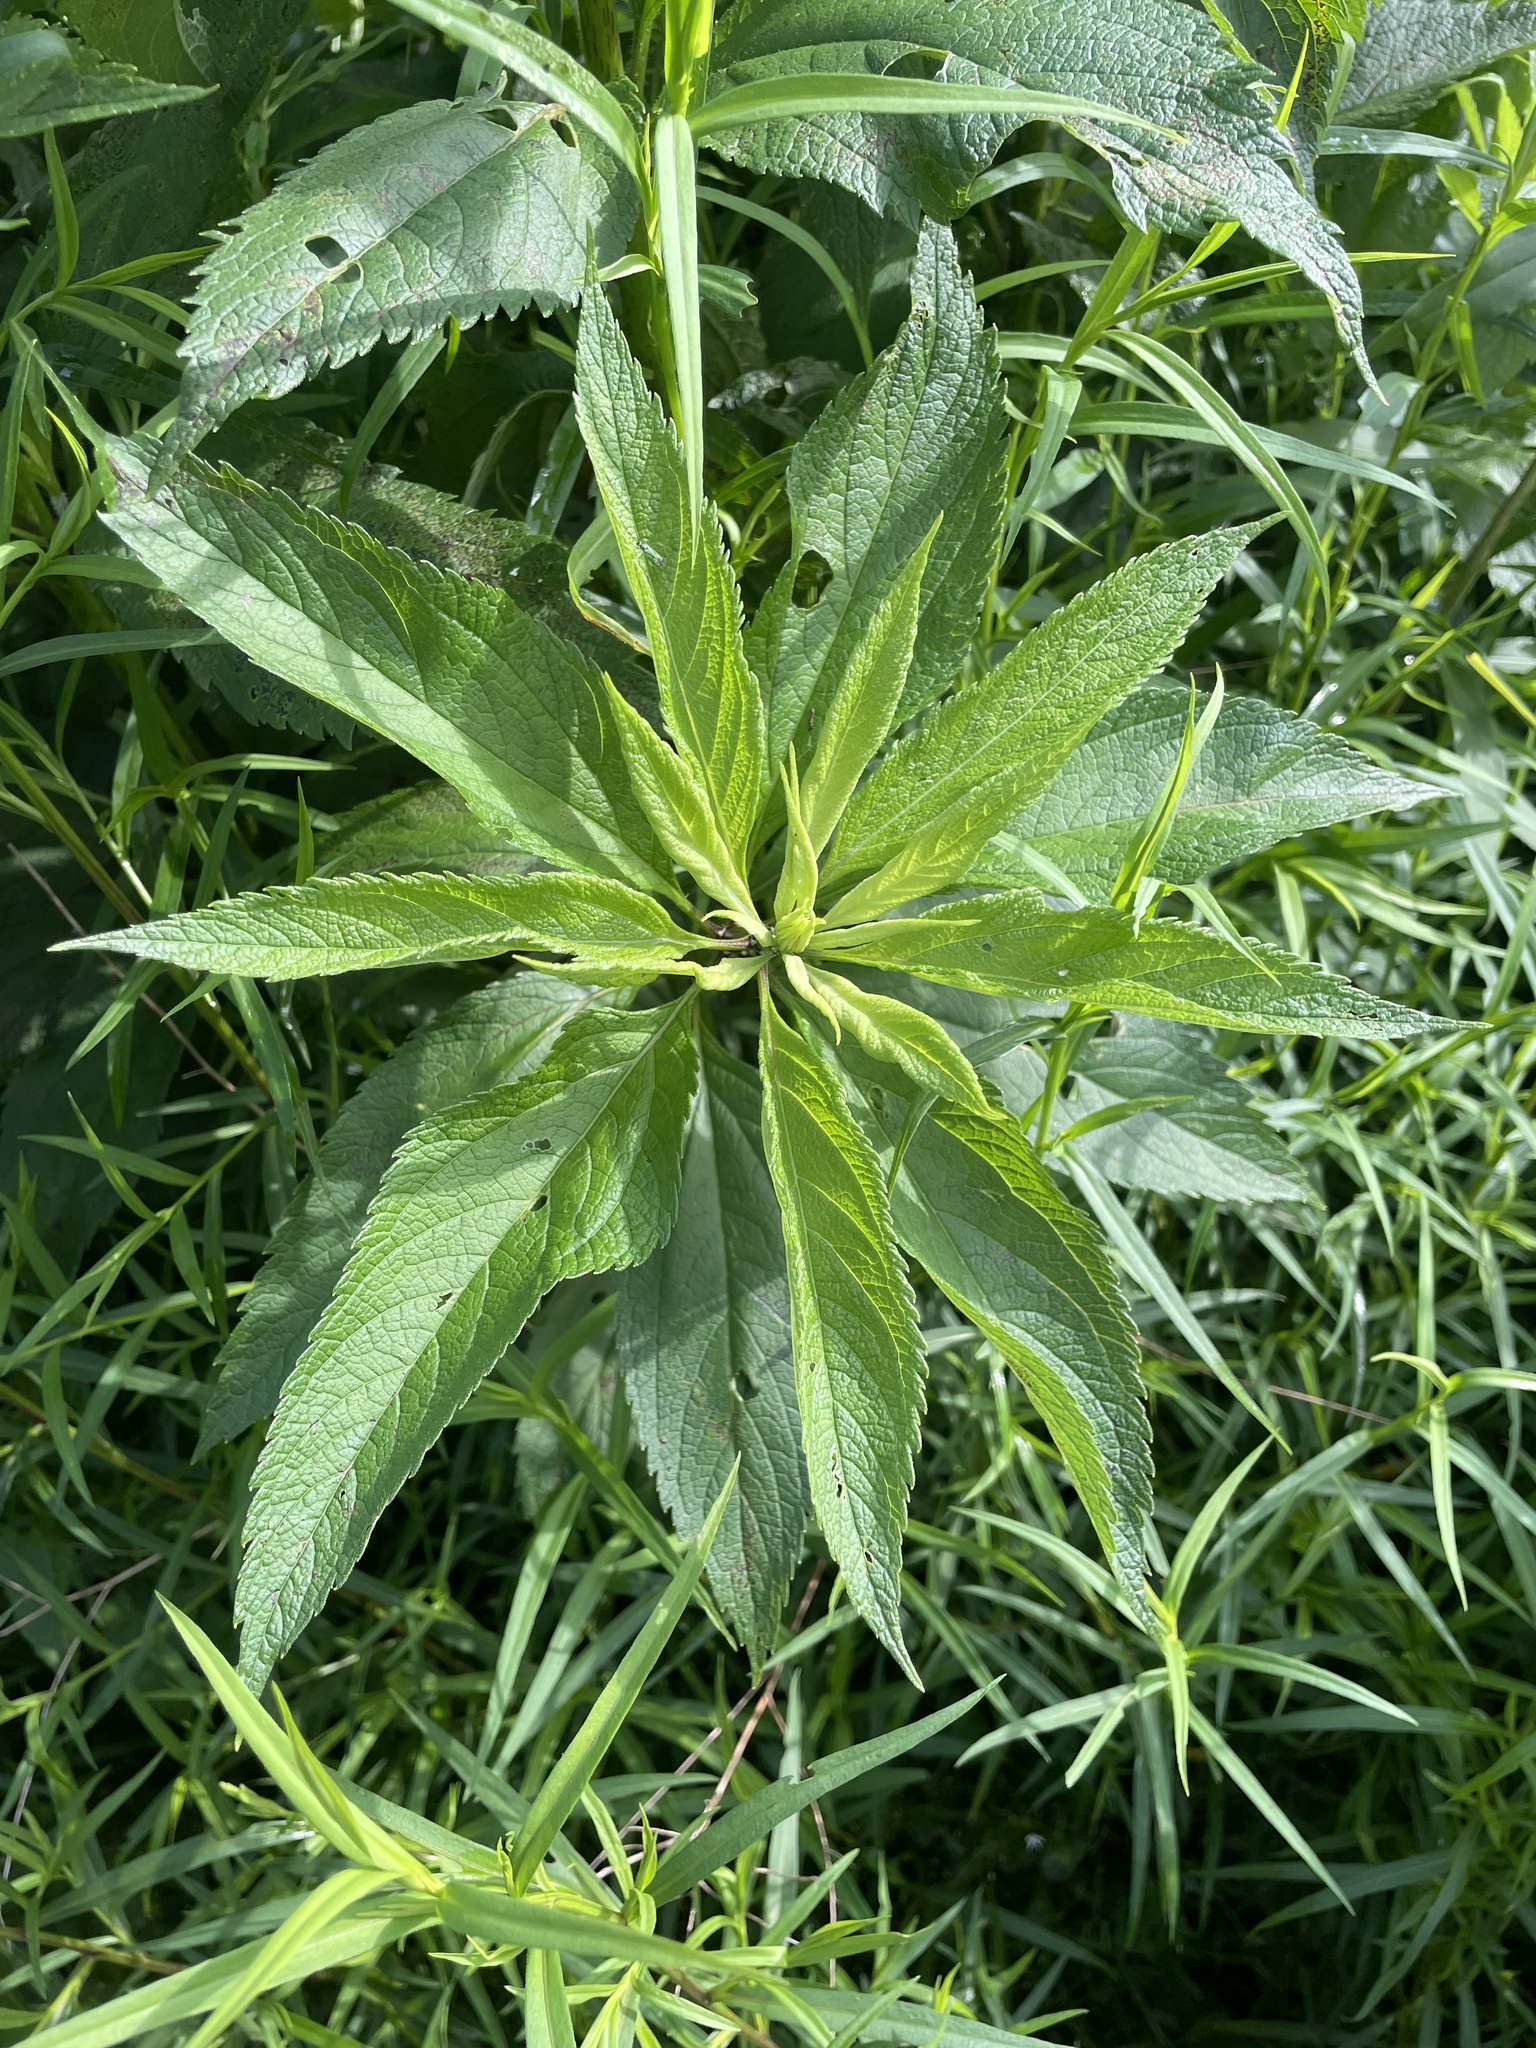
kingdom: Plantae
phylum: Tracheophyta
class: Magnoliopsida
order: Asterales
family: Asteraceae
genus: Eutrochium
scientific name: Eutrochium maculatum
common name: Spotted joe pye weed
